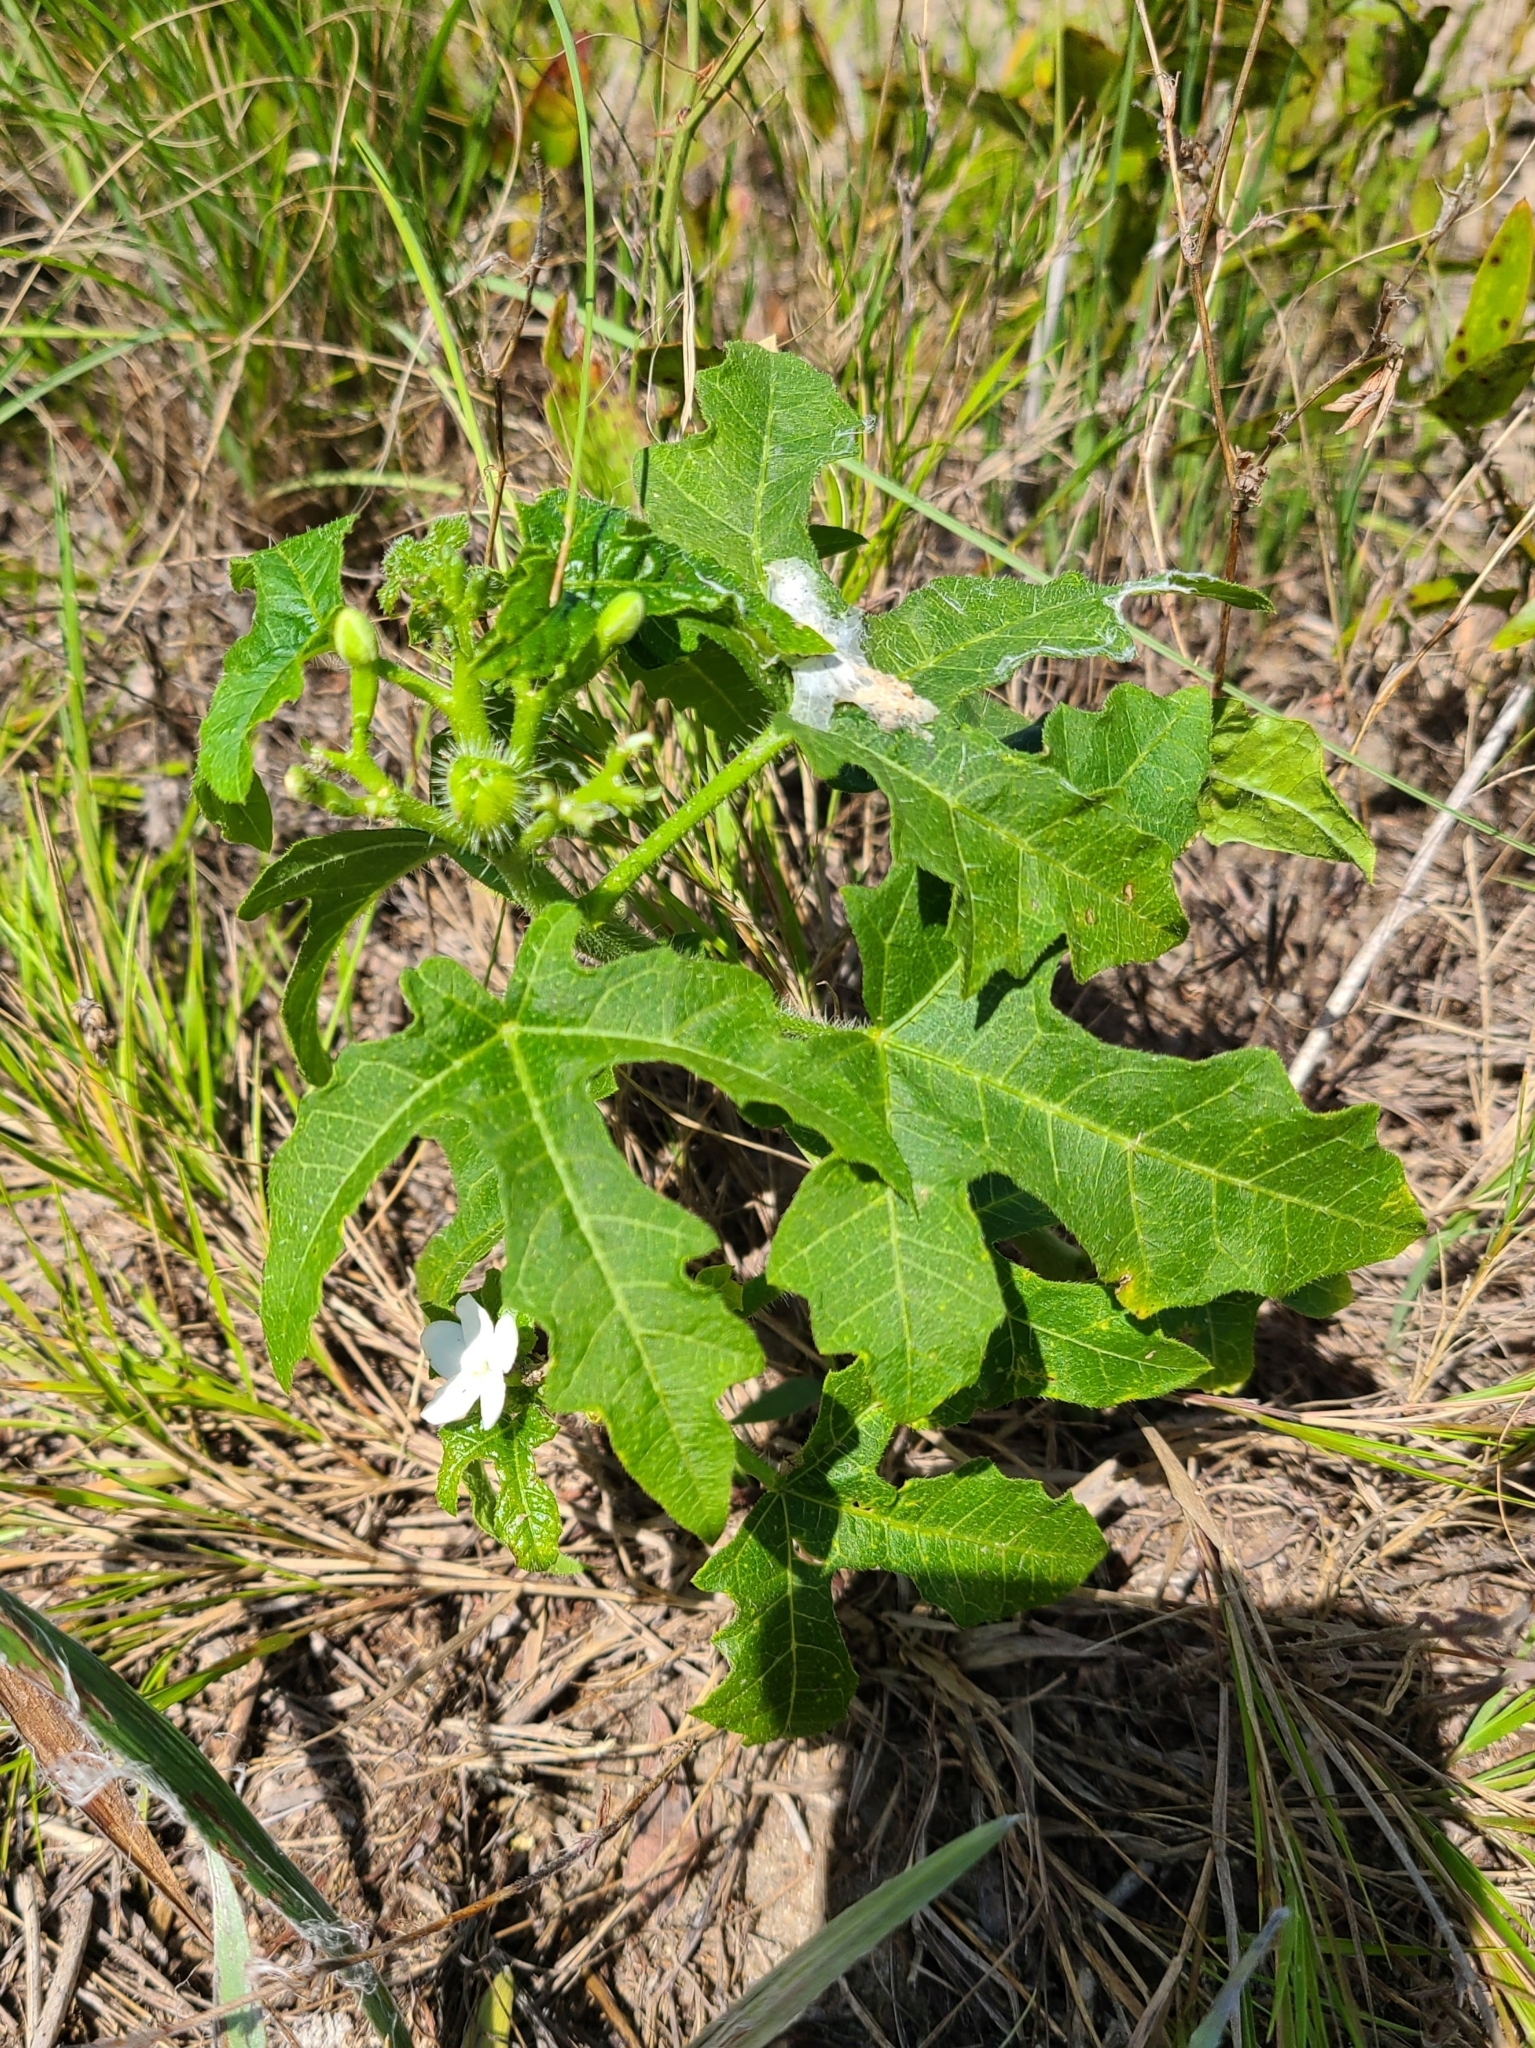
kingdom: Plantae
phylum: Tracheophyta
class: Magnoliopsida
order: Malpighiales
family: Euphorbiaceae
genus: Cnidoscolus
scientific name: Cnidoscolus stimulosus
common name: Bull-nettle
